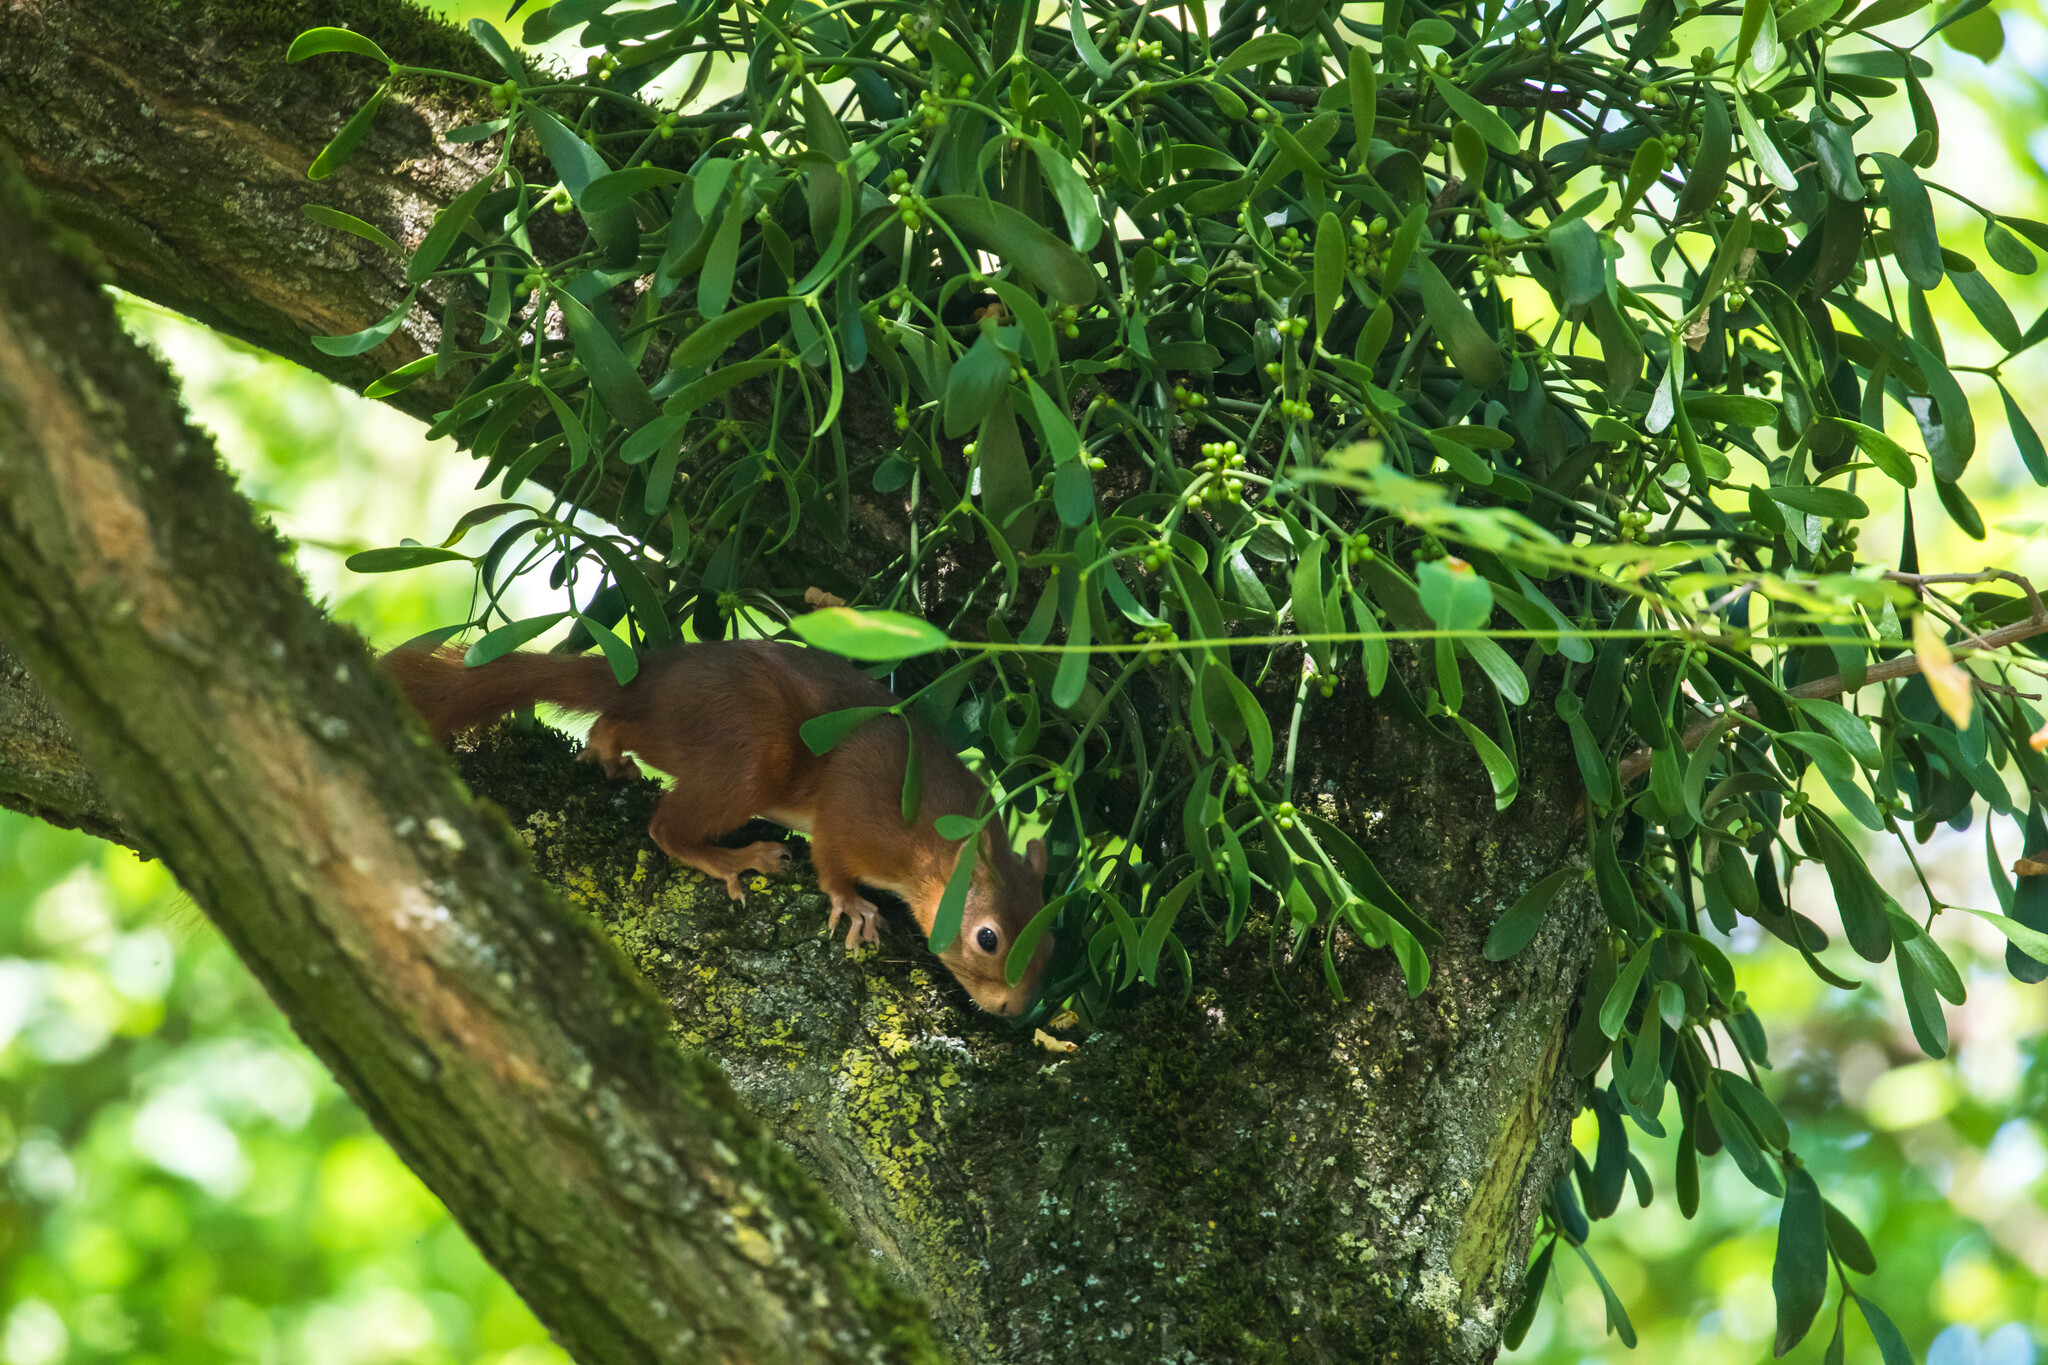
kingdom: Animalia
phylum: Chordata
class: Mammalia
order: Rodentia
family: Sciuridae
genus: Sciurus
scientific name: Sciurus vulgaris
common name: Eurasian red squirrel
